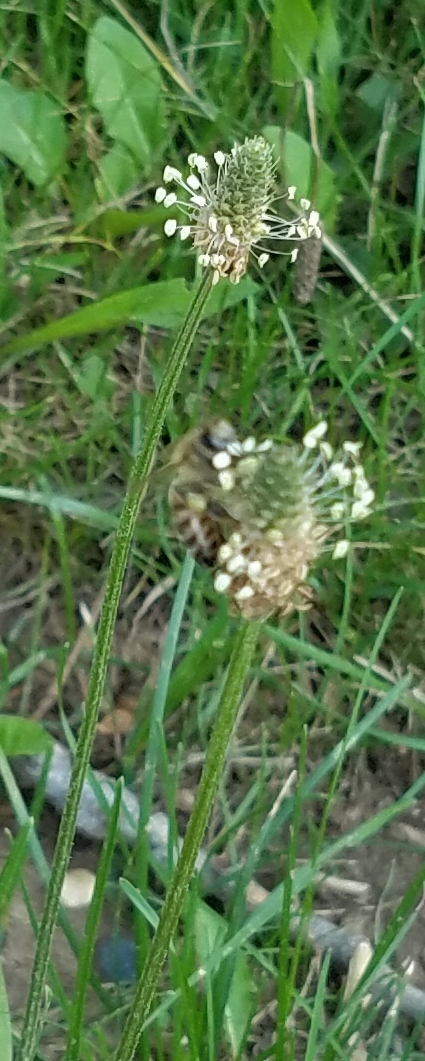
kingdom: Plantae
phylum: Tracheophyta
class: Magnoliopsida
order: Lamiales
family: Plantaginaceae
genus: Plantago
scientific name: Plantago lanceolata
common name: Ribwort plantain
